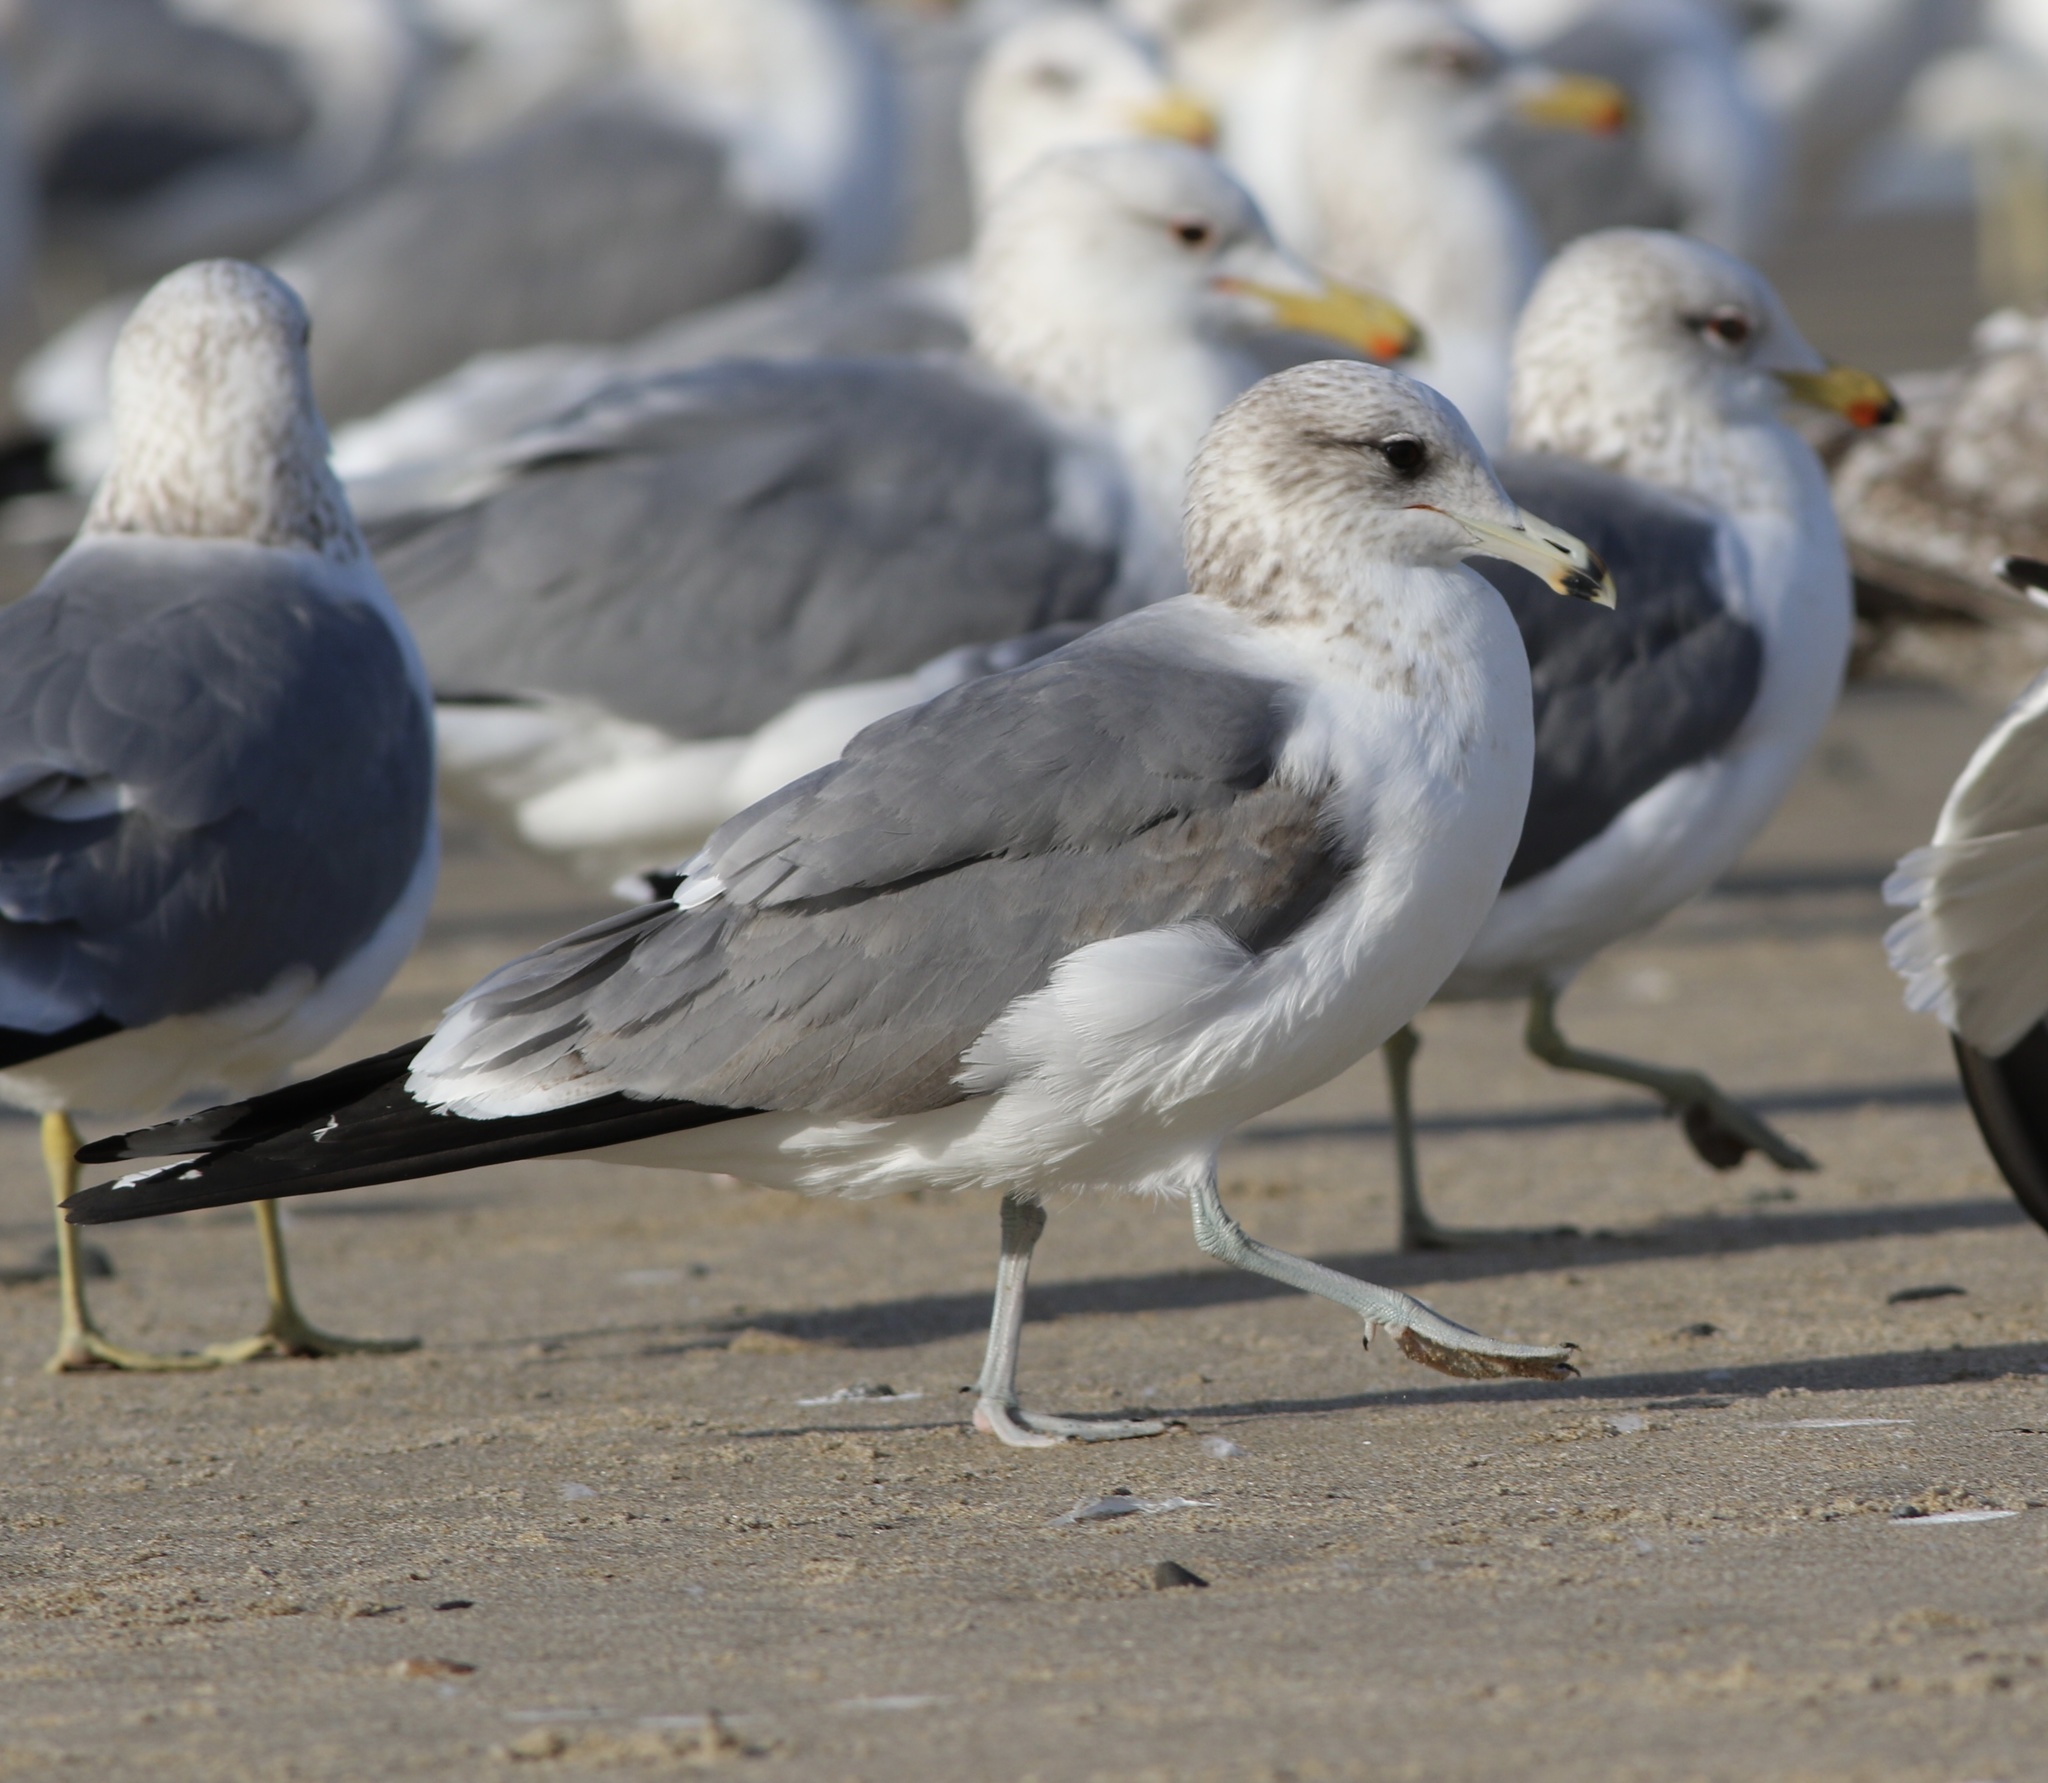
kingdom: Animalia
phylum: Chordata
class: Aves
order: Charadriiformes
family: Laridae
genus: Larus
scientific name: Larus californicus
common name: California gull
